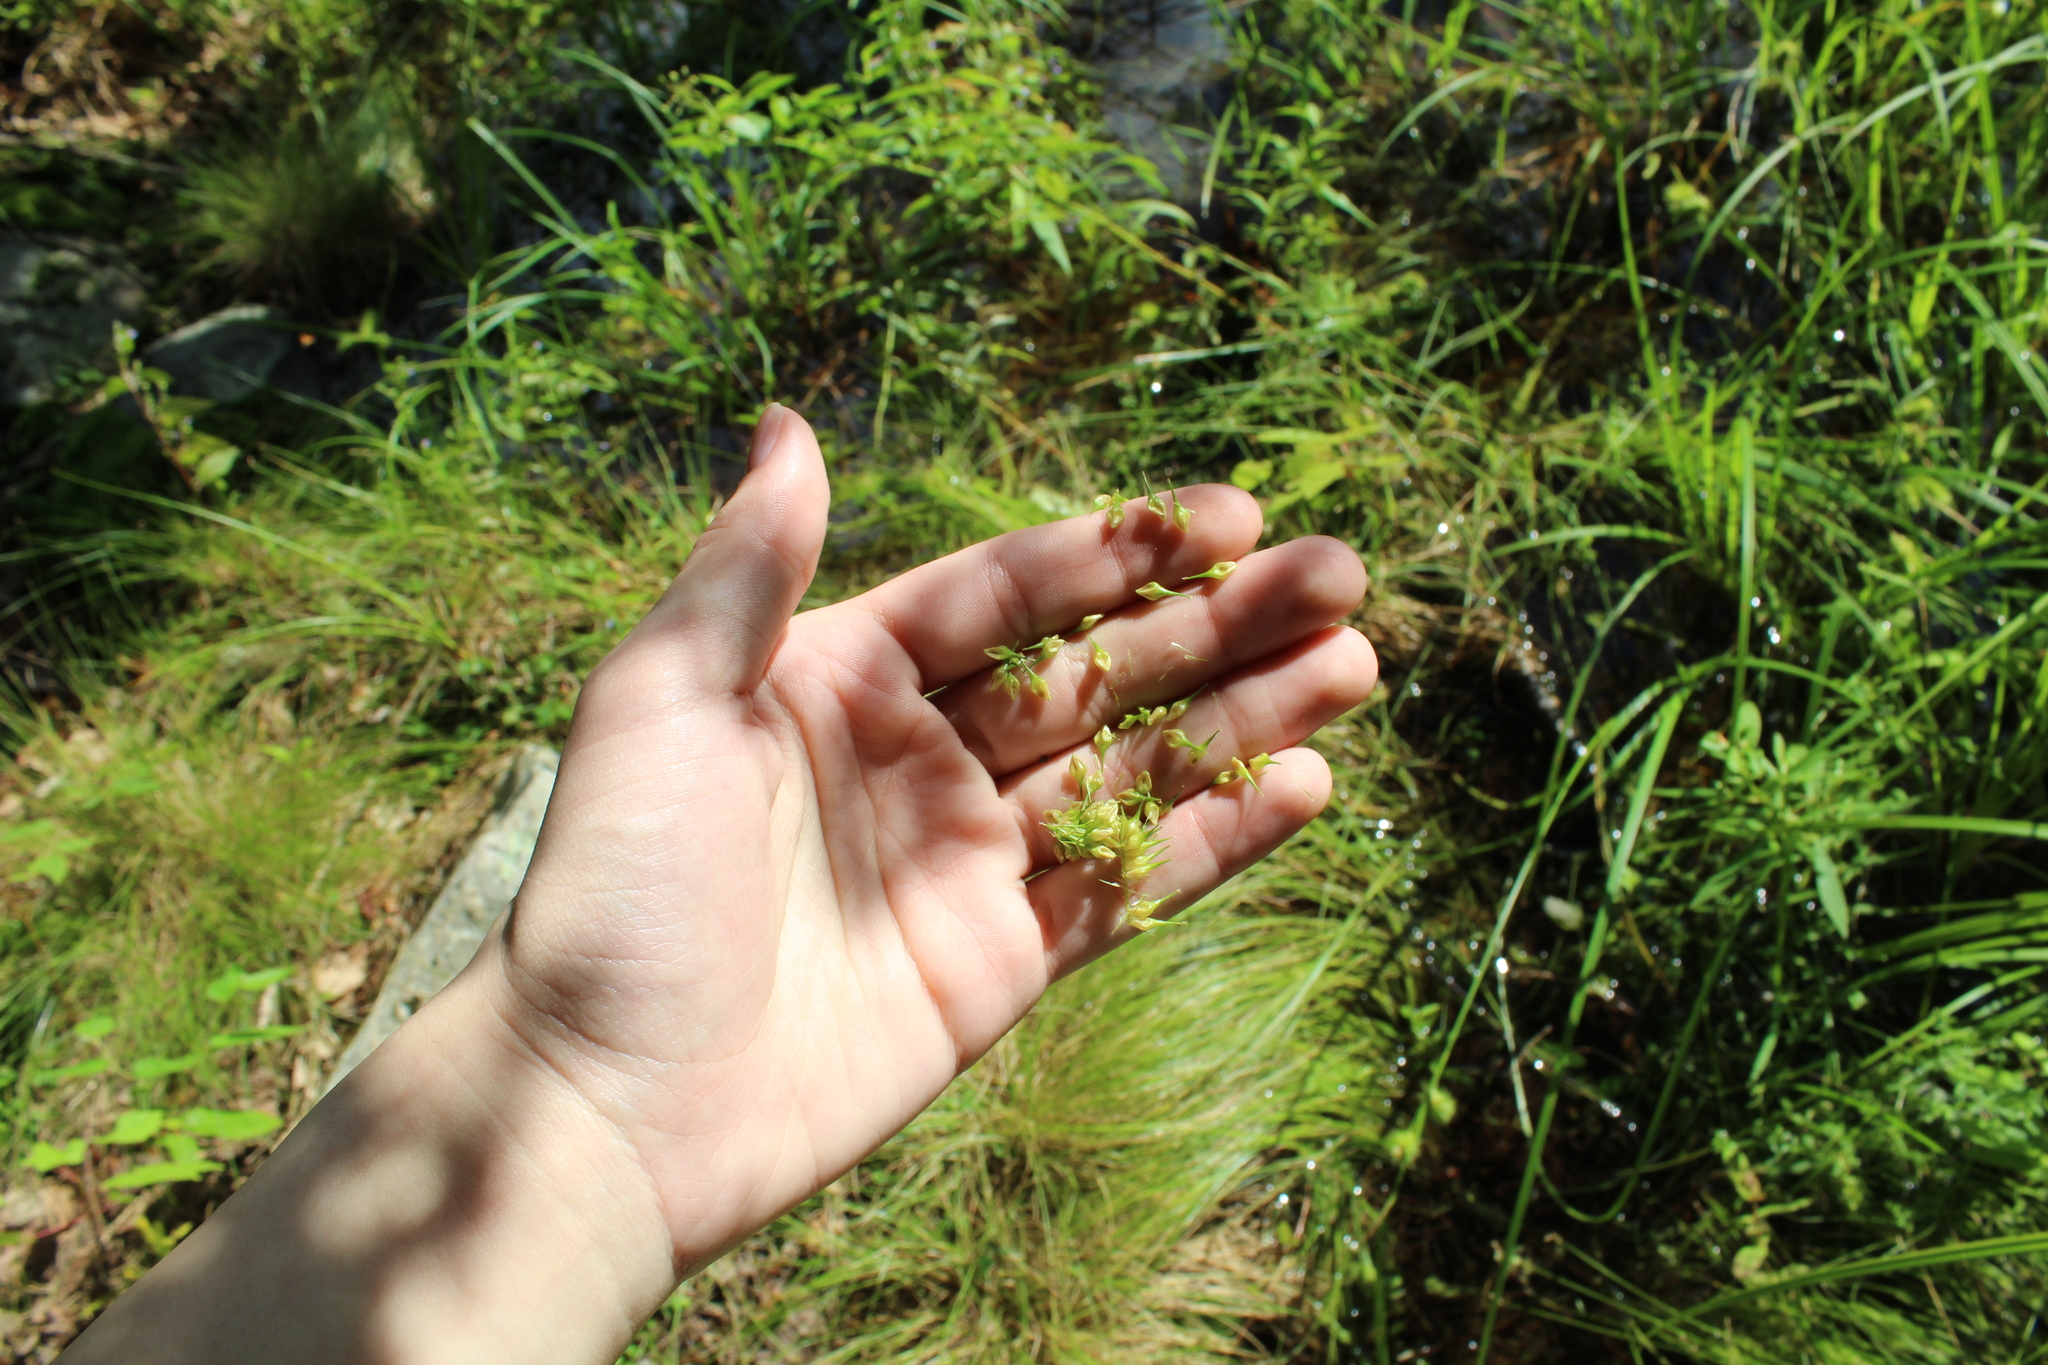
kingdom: Plantae
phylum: Tracheophyta
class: Liliopsida
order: Poales
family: Cyperaceae
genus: Carex
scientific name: Carex lurida
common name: Sallow sedge
